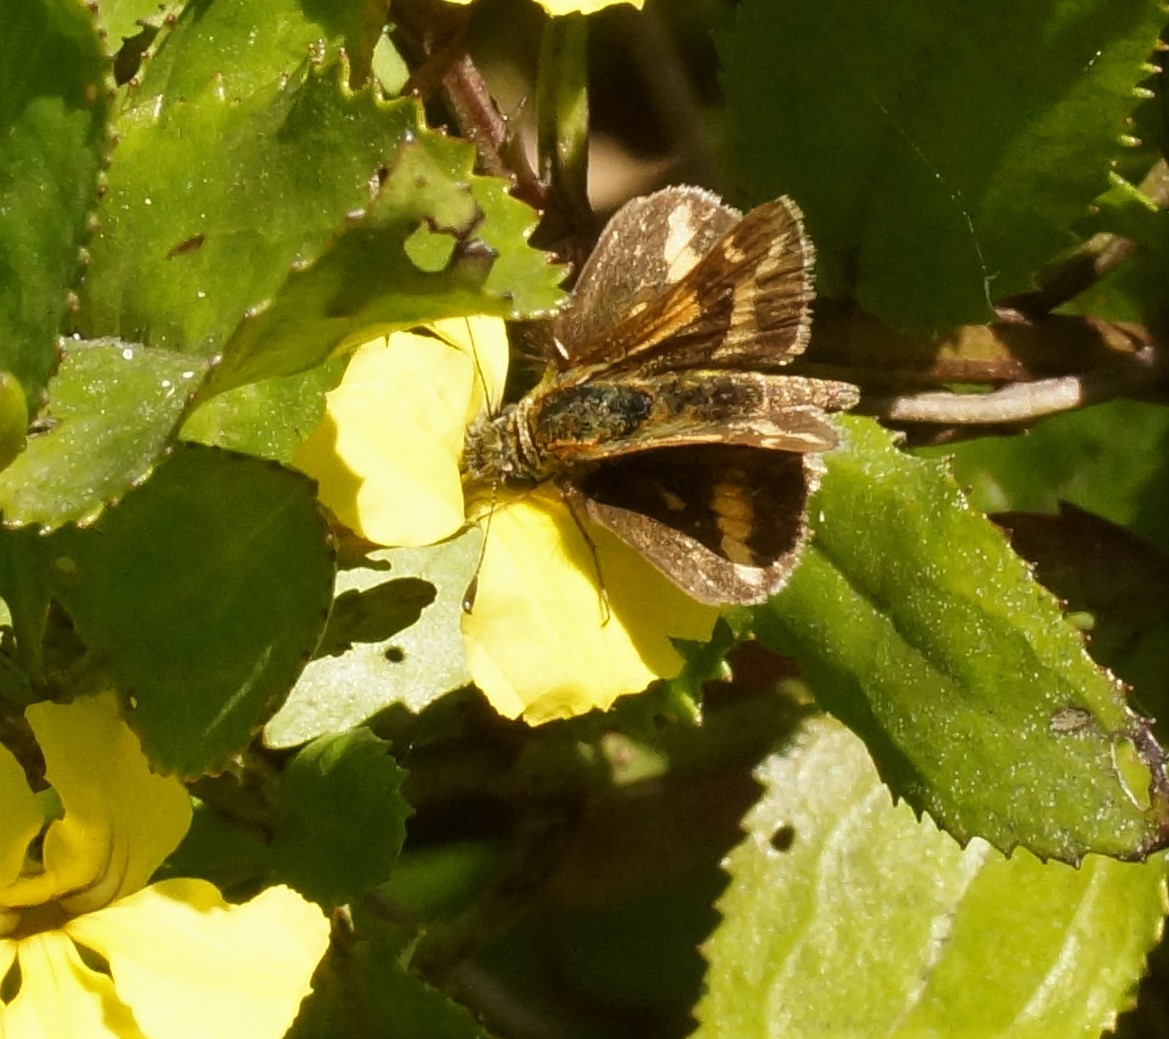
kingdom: Animalia
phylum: Arthropoda
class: Insecta
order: Lepidoptera
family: Hesperiidae
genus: Taractrocera
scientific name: Taractrocera papyria
